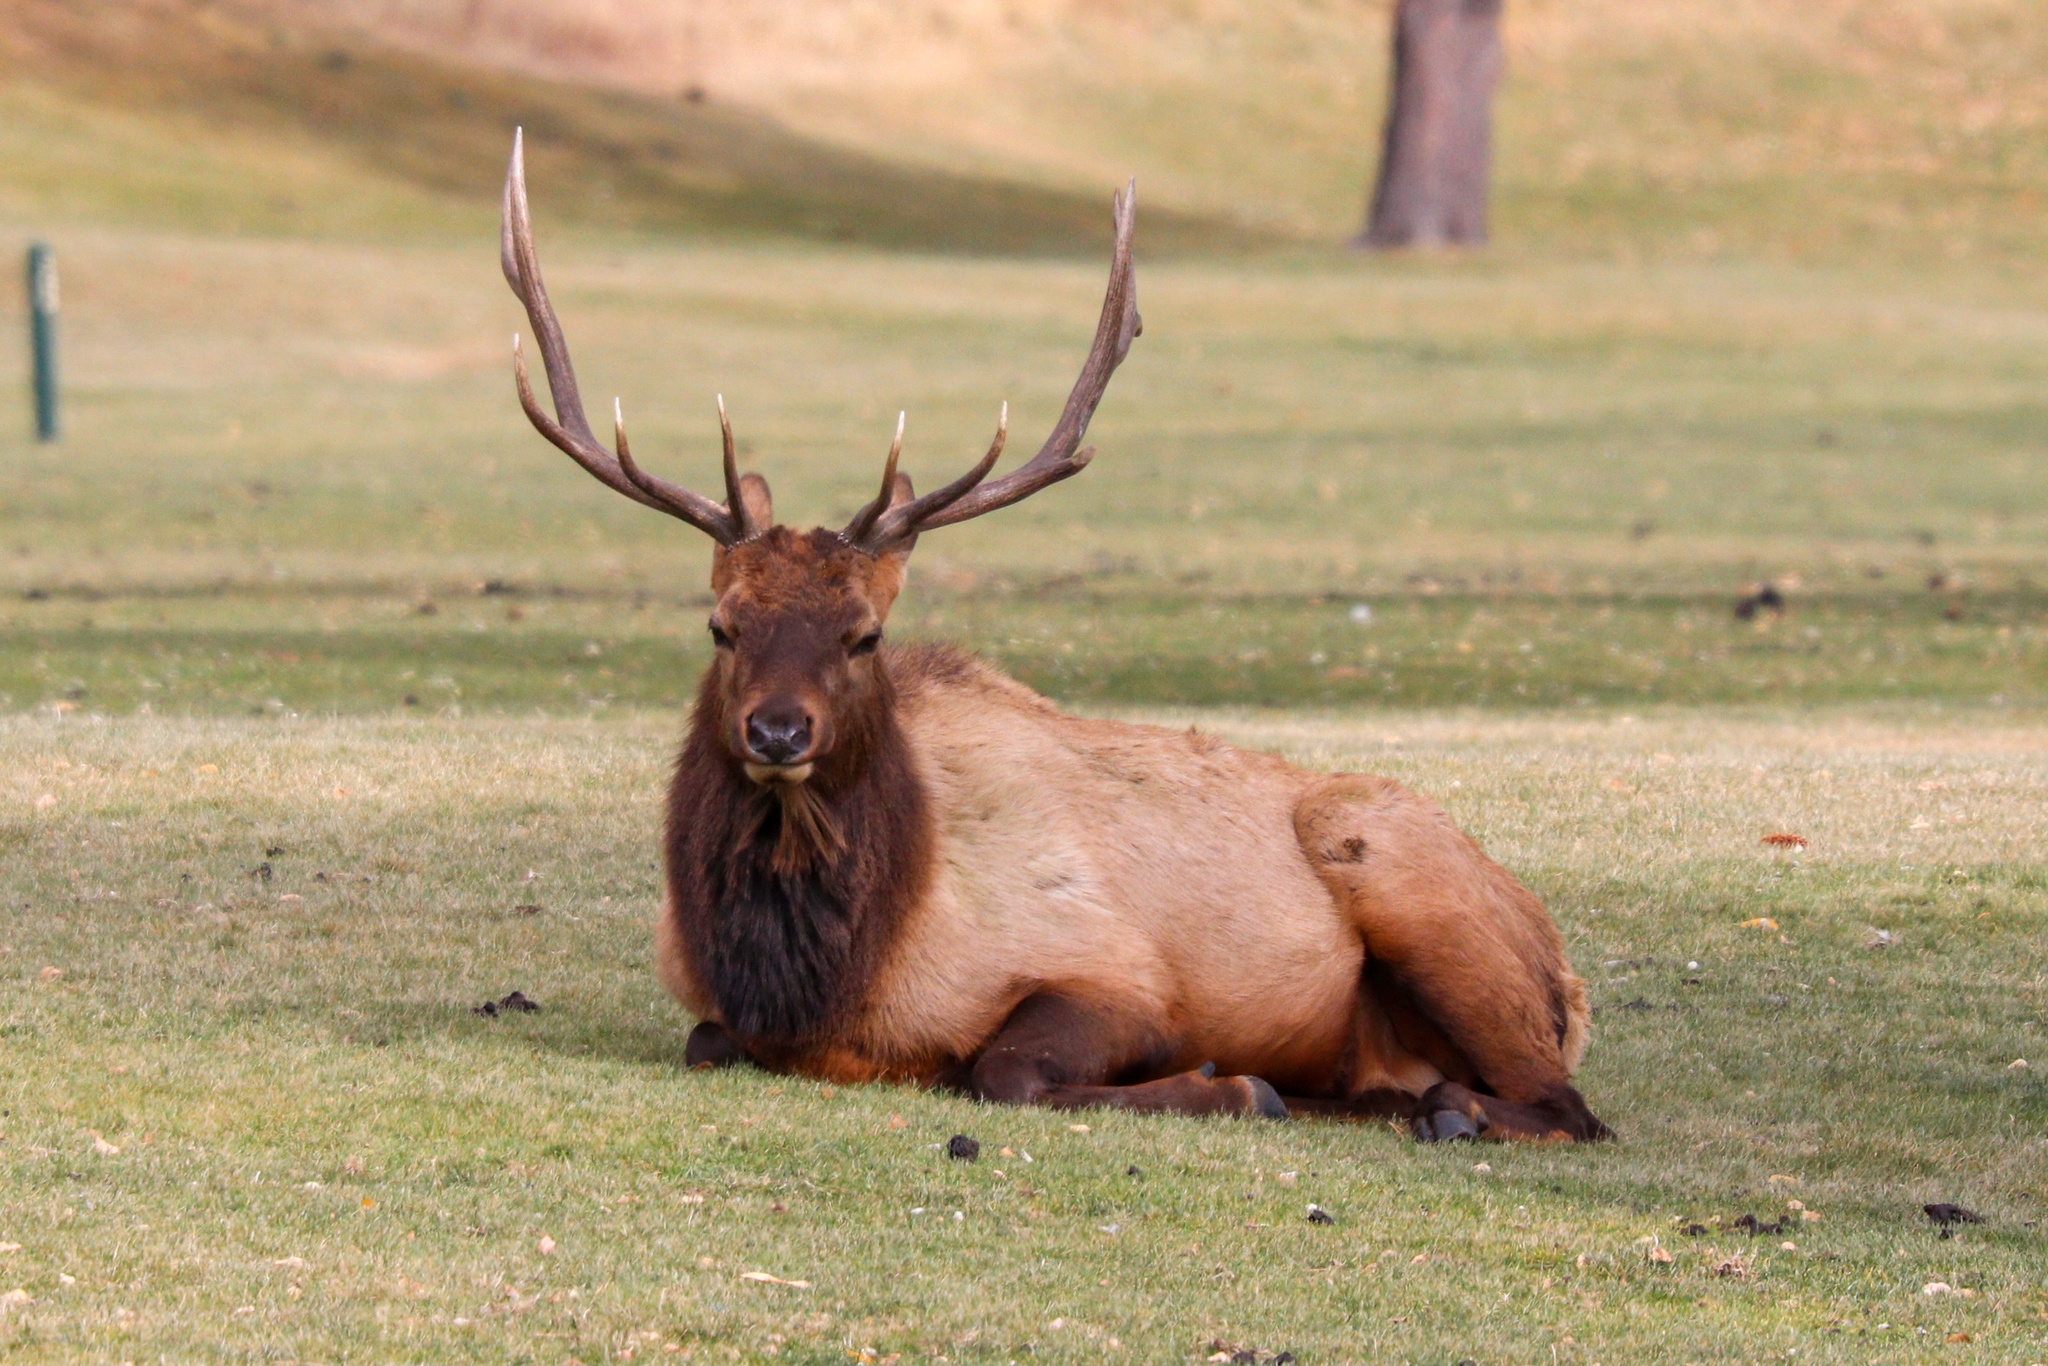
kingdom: Animalia
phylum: Chordata
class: Mammalia
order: Artiodactyla
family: Cervidae
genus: Cervus
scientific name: Cervus elaphus
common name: Red deer
